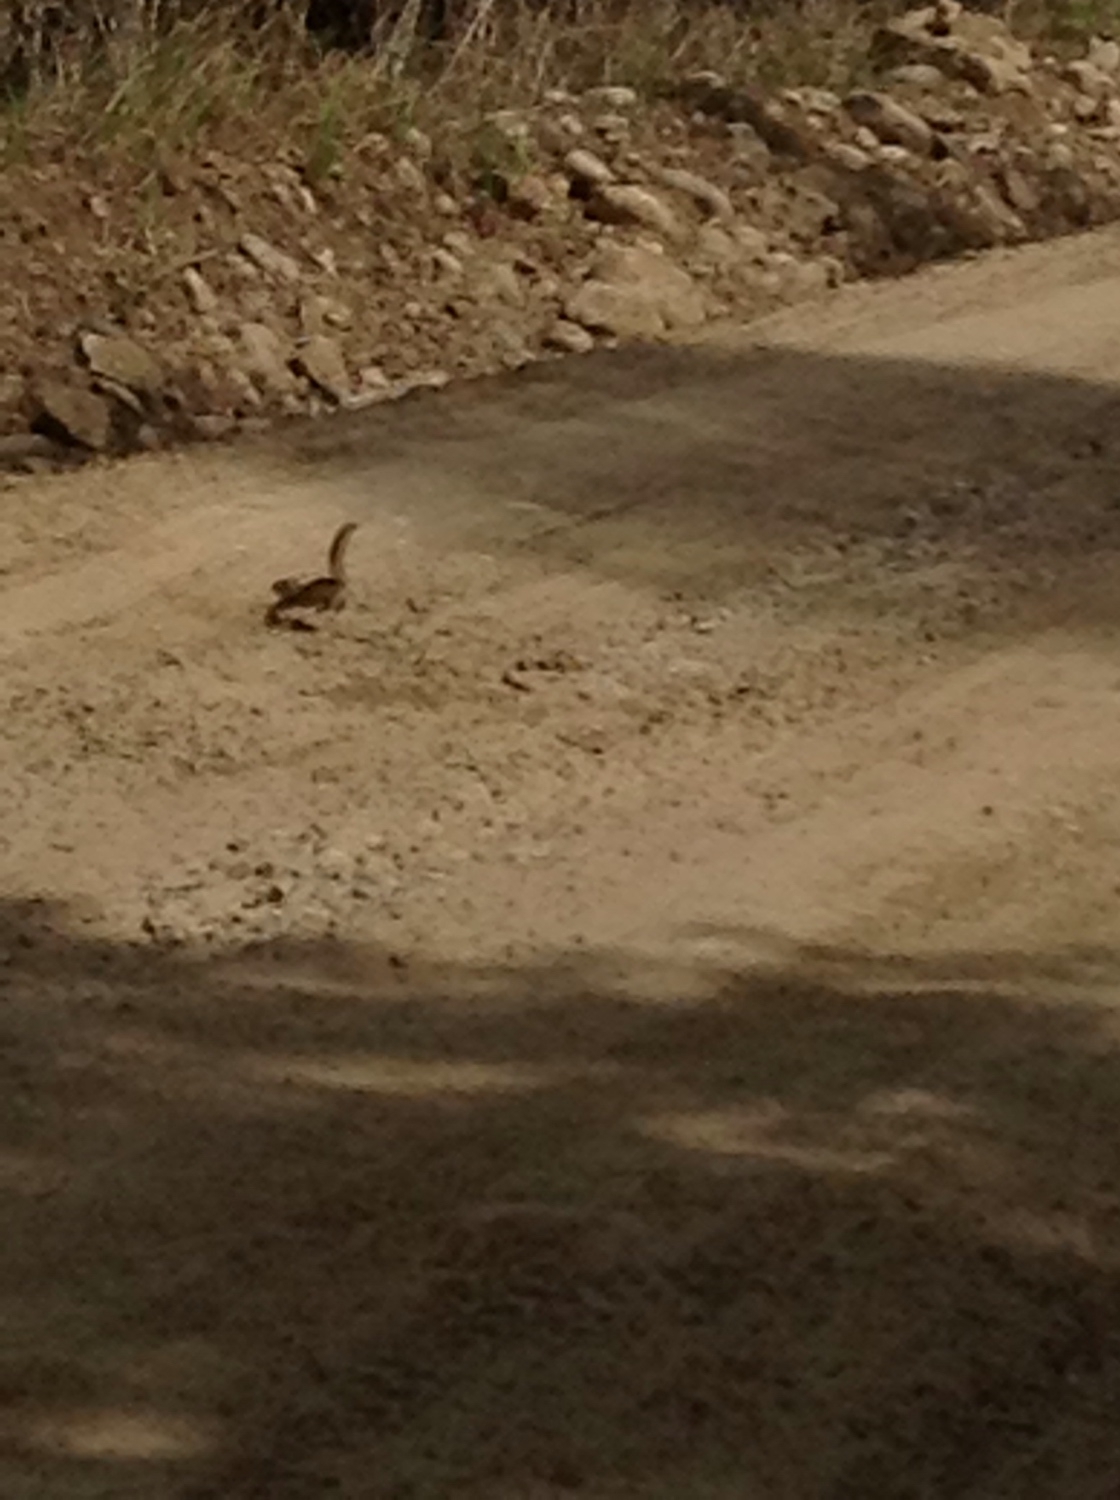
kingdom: Animalia
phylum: Chordata
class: Mammalia
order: Rodentia
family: Sciuridae
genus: Tamias
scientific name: Tamias sibiricus
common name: Siberian chipmunk
